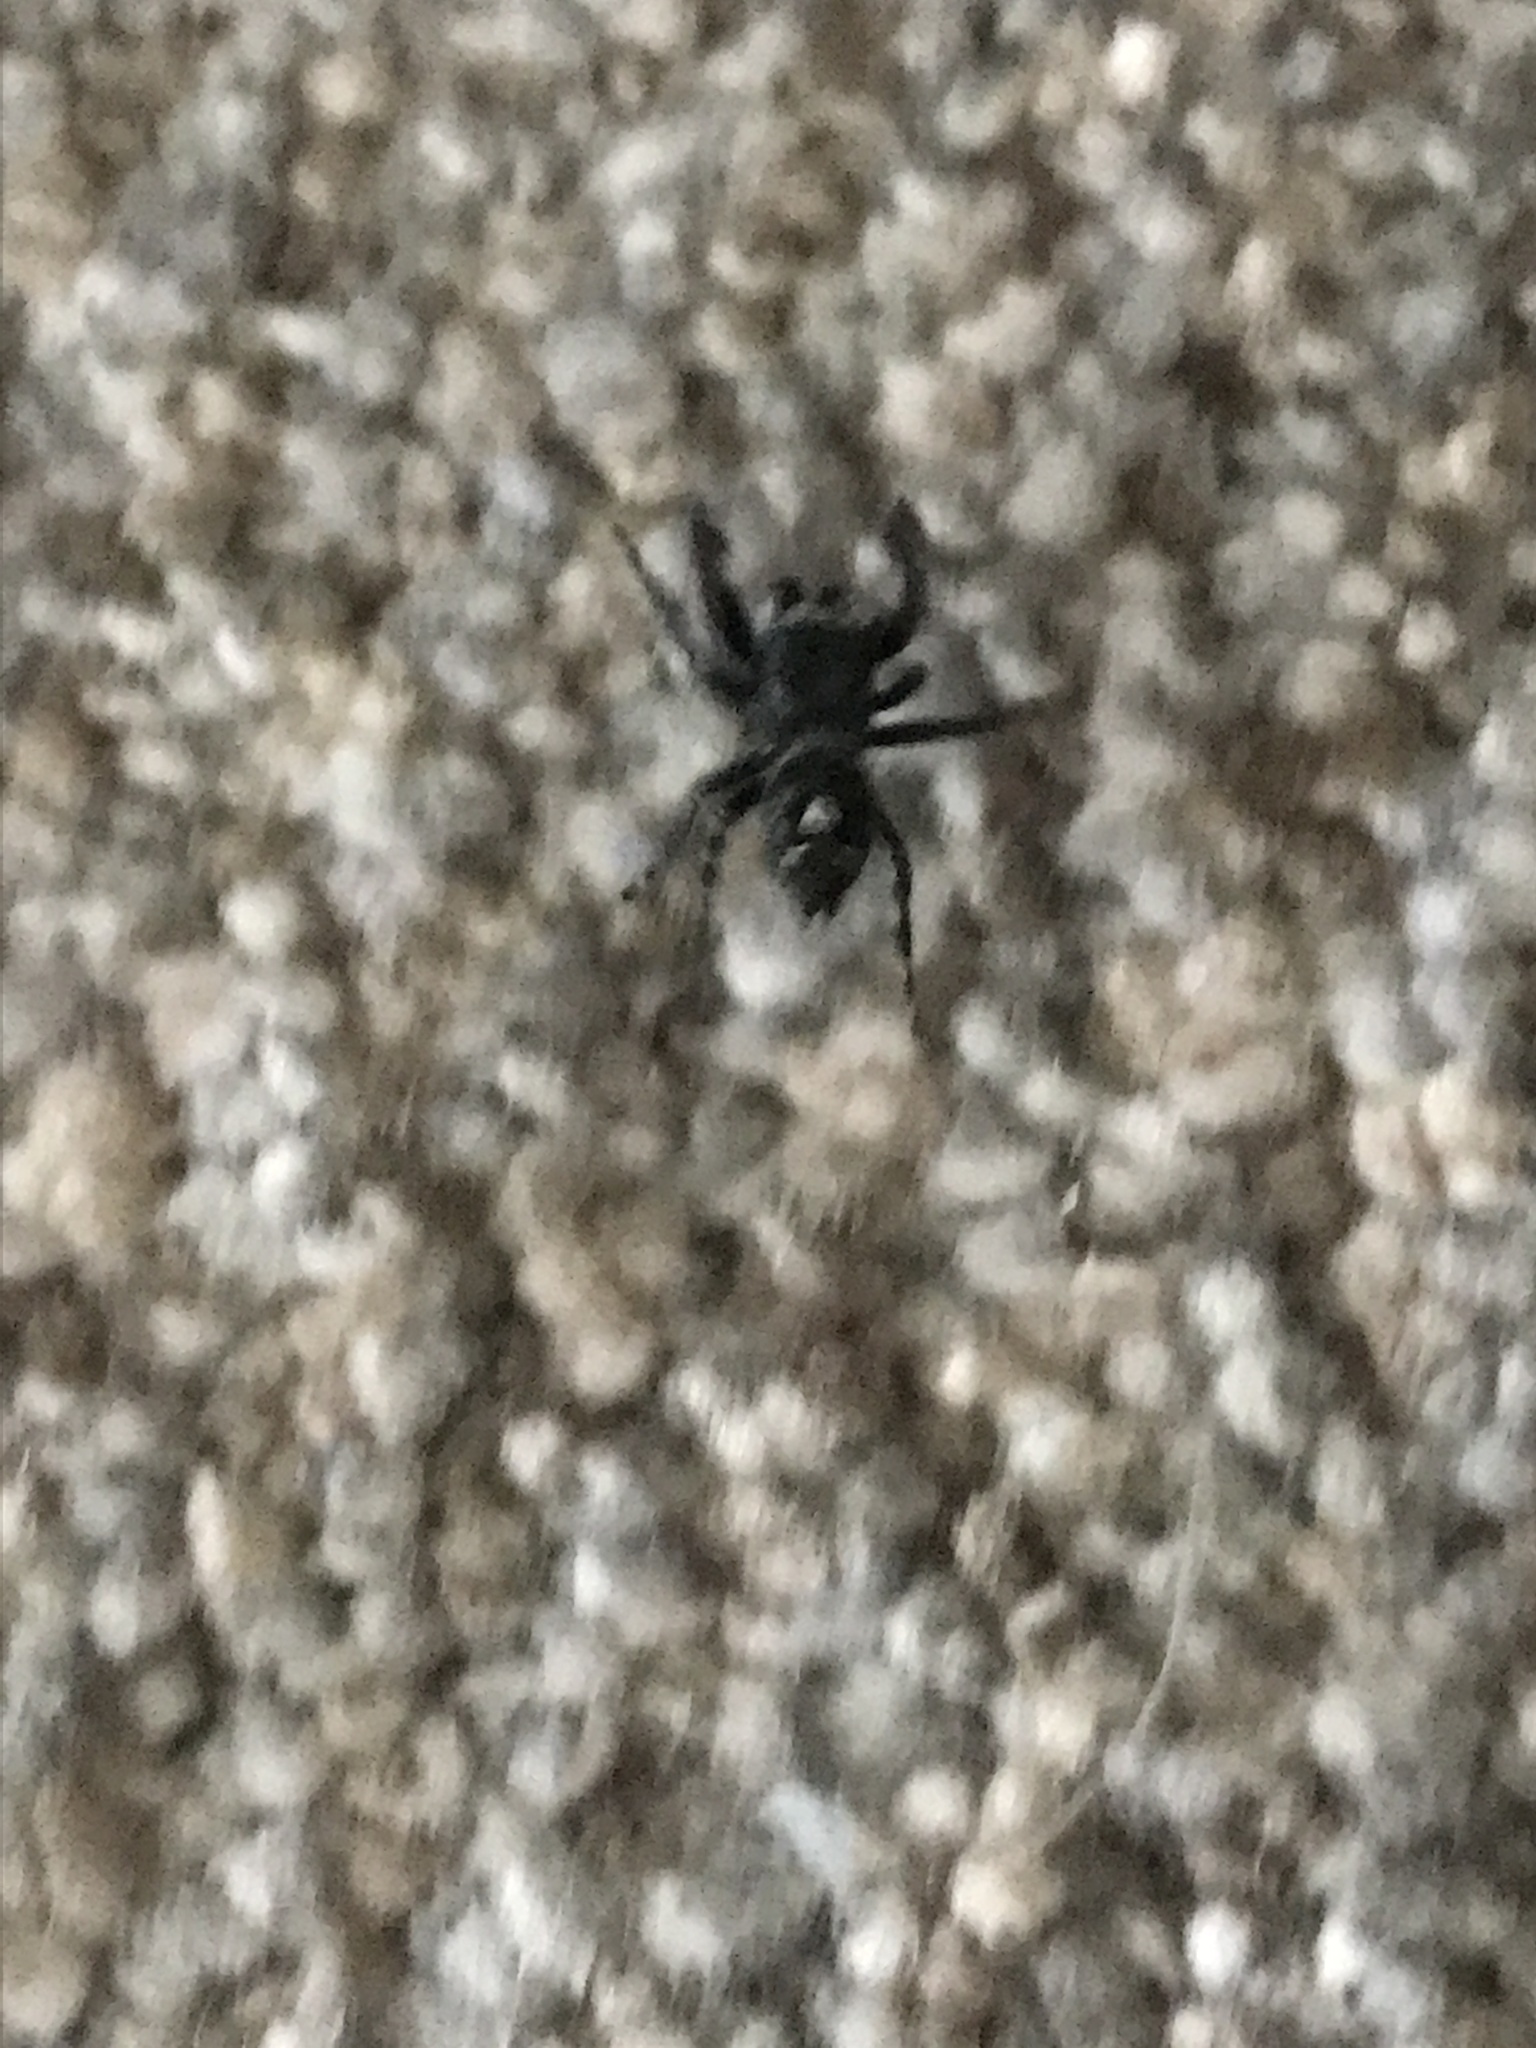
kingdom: Animalia
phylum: Arthropoda
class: Arachnida
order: Araneae
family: Salticidae
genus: Phidippus
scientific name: Phidippus audax
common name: Bold jumper
